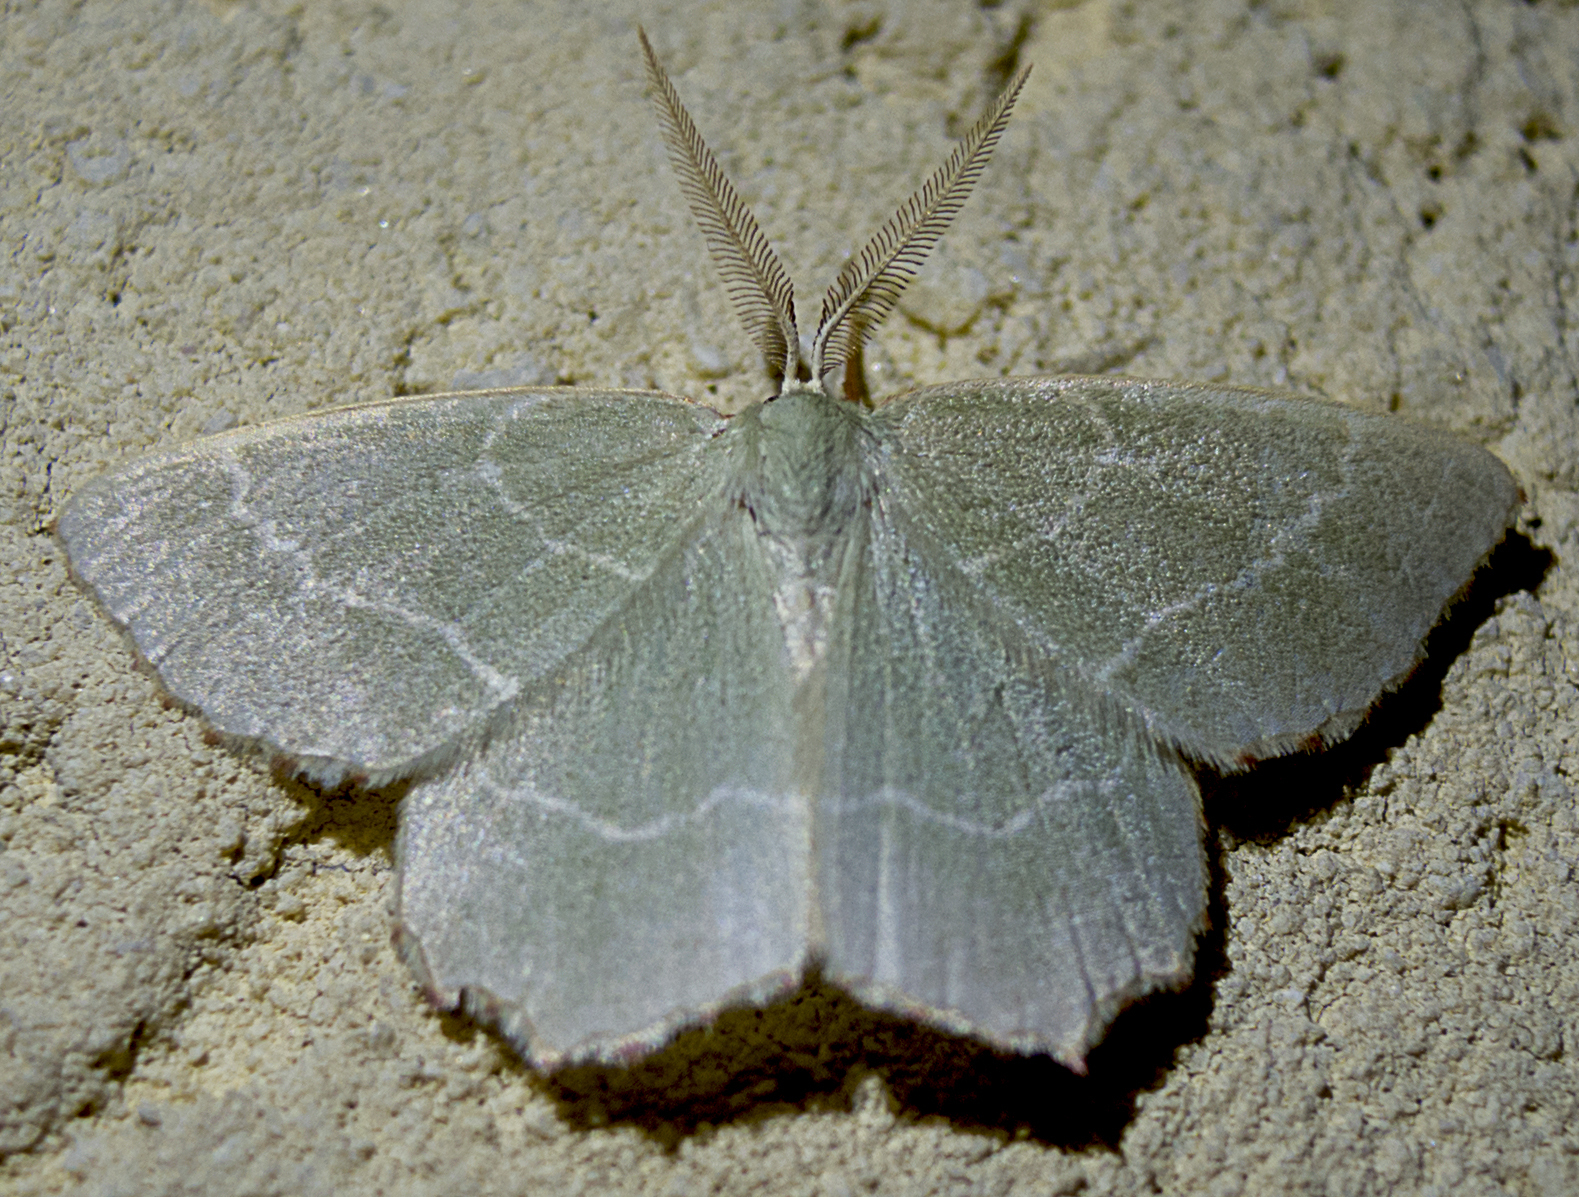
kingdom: Animalia
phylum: Arthropoda
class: Insecta
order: Lepidoptera
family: Geometridae
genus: Thalera
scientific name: Thalera fimbrialis
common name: Sussex emerald
